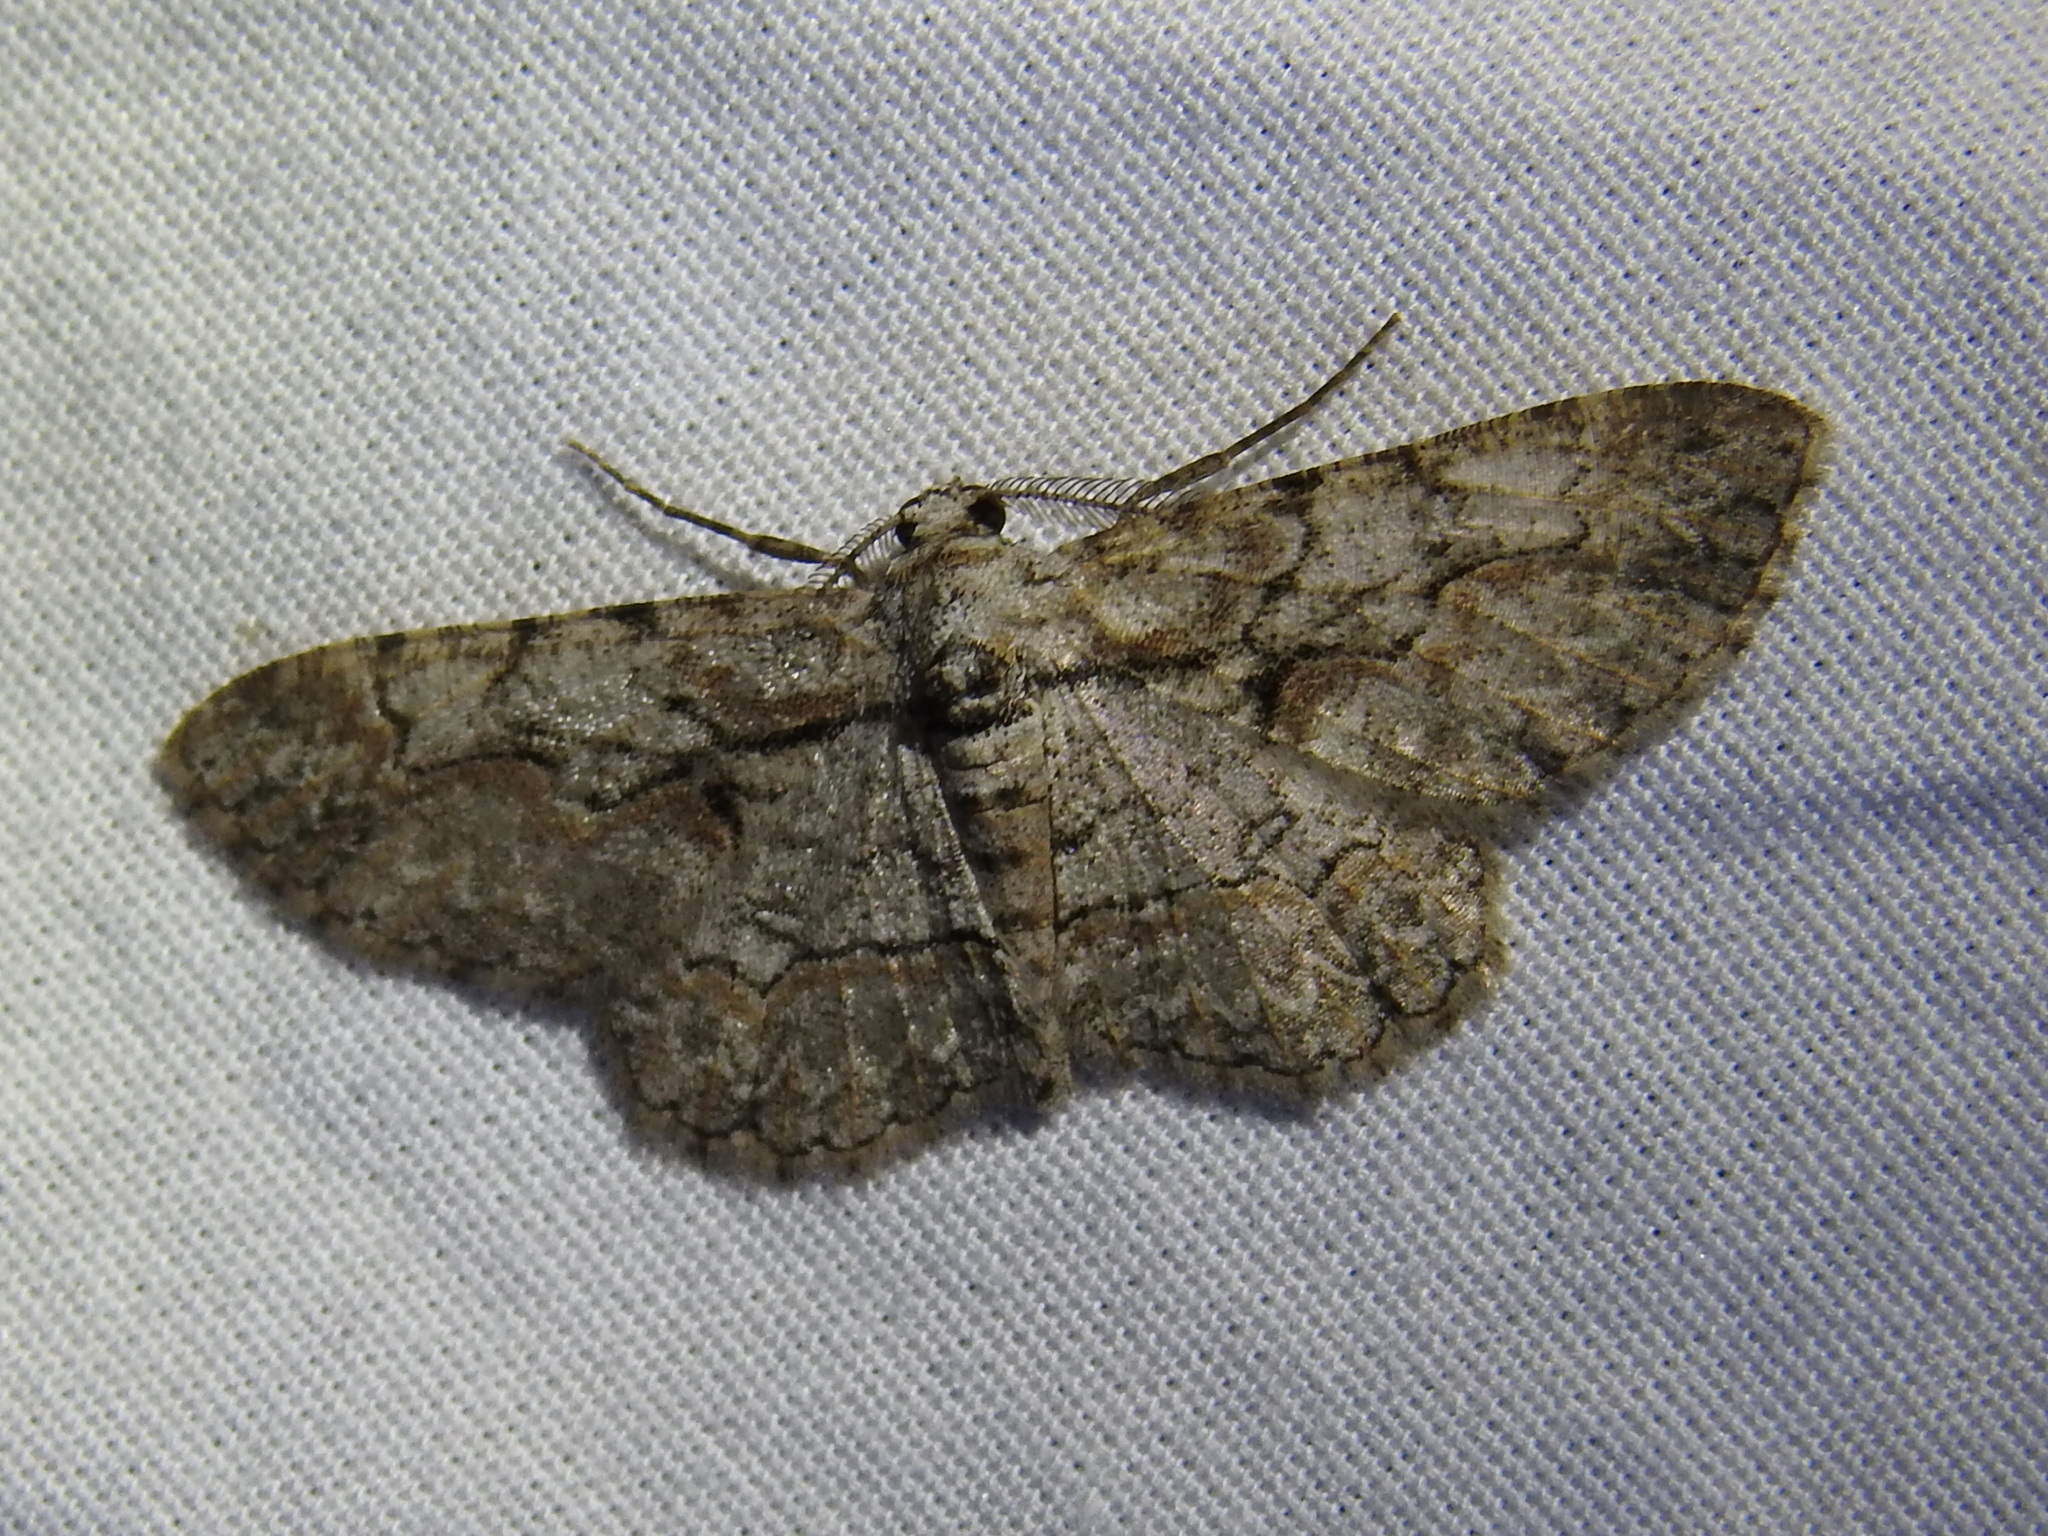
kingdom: Animalia
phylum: Arthropoda
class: Insecta
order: Lepidoptera
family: Geometridae
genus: Iridopsis
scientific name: Iridopsis defectaria
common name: Brown-shaded gray
